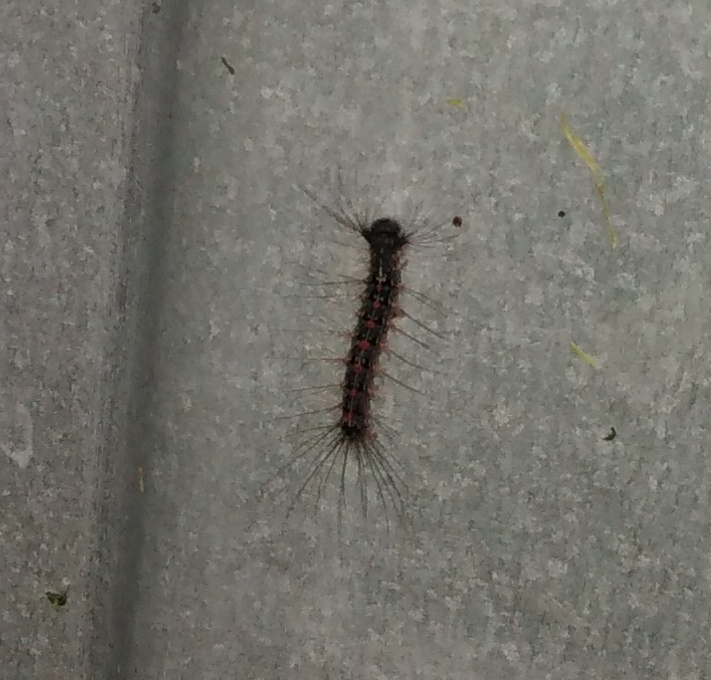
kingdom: Animalia
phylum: Arthropoda
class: Insecta
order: Lepidoptera
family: Erebidae
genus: Lymantria
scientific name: Lymantria dispar
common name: Gypsy moth
